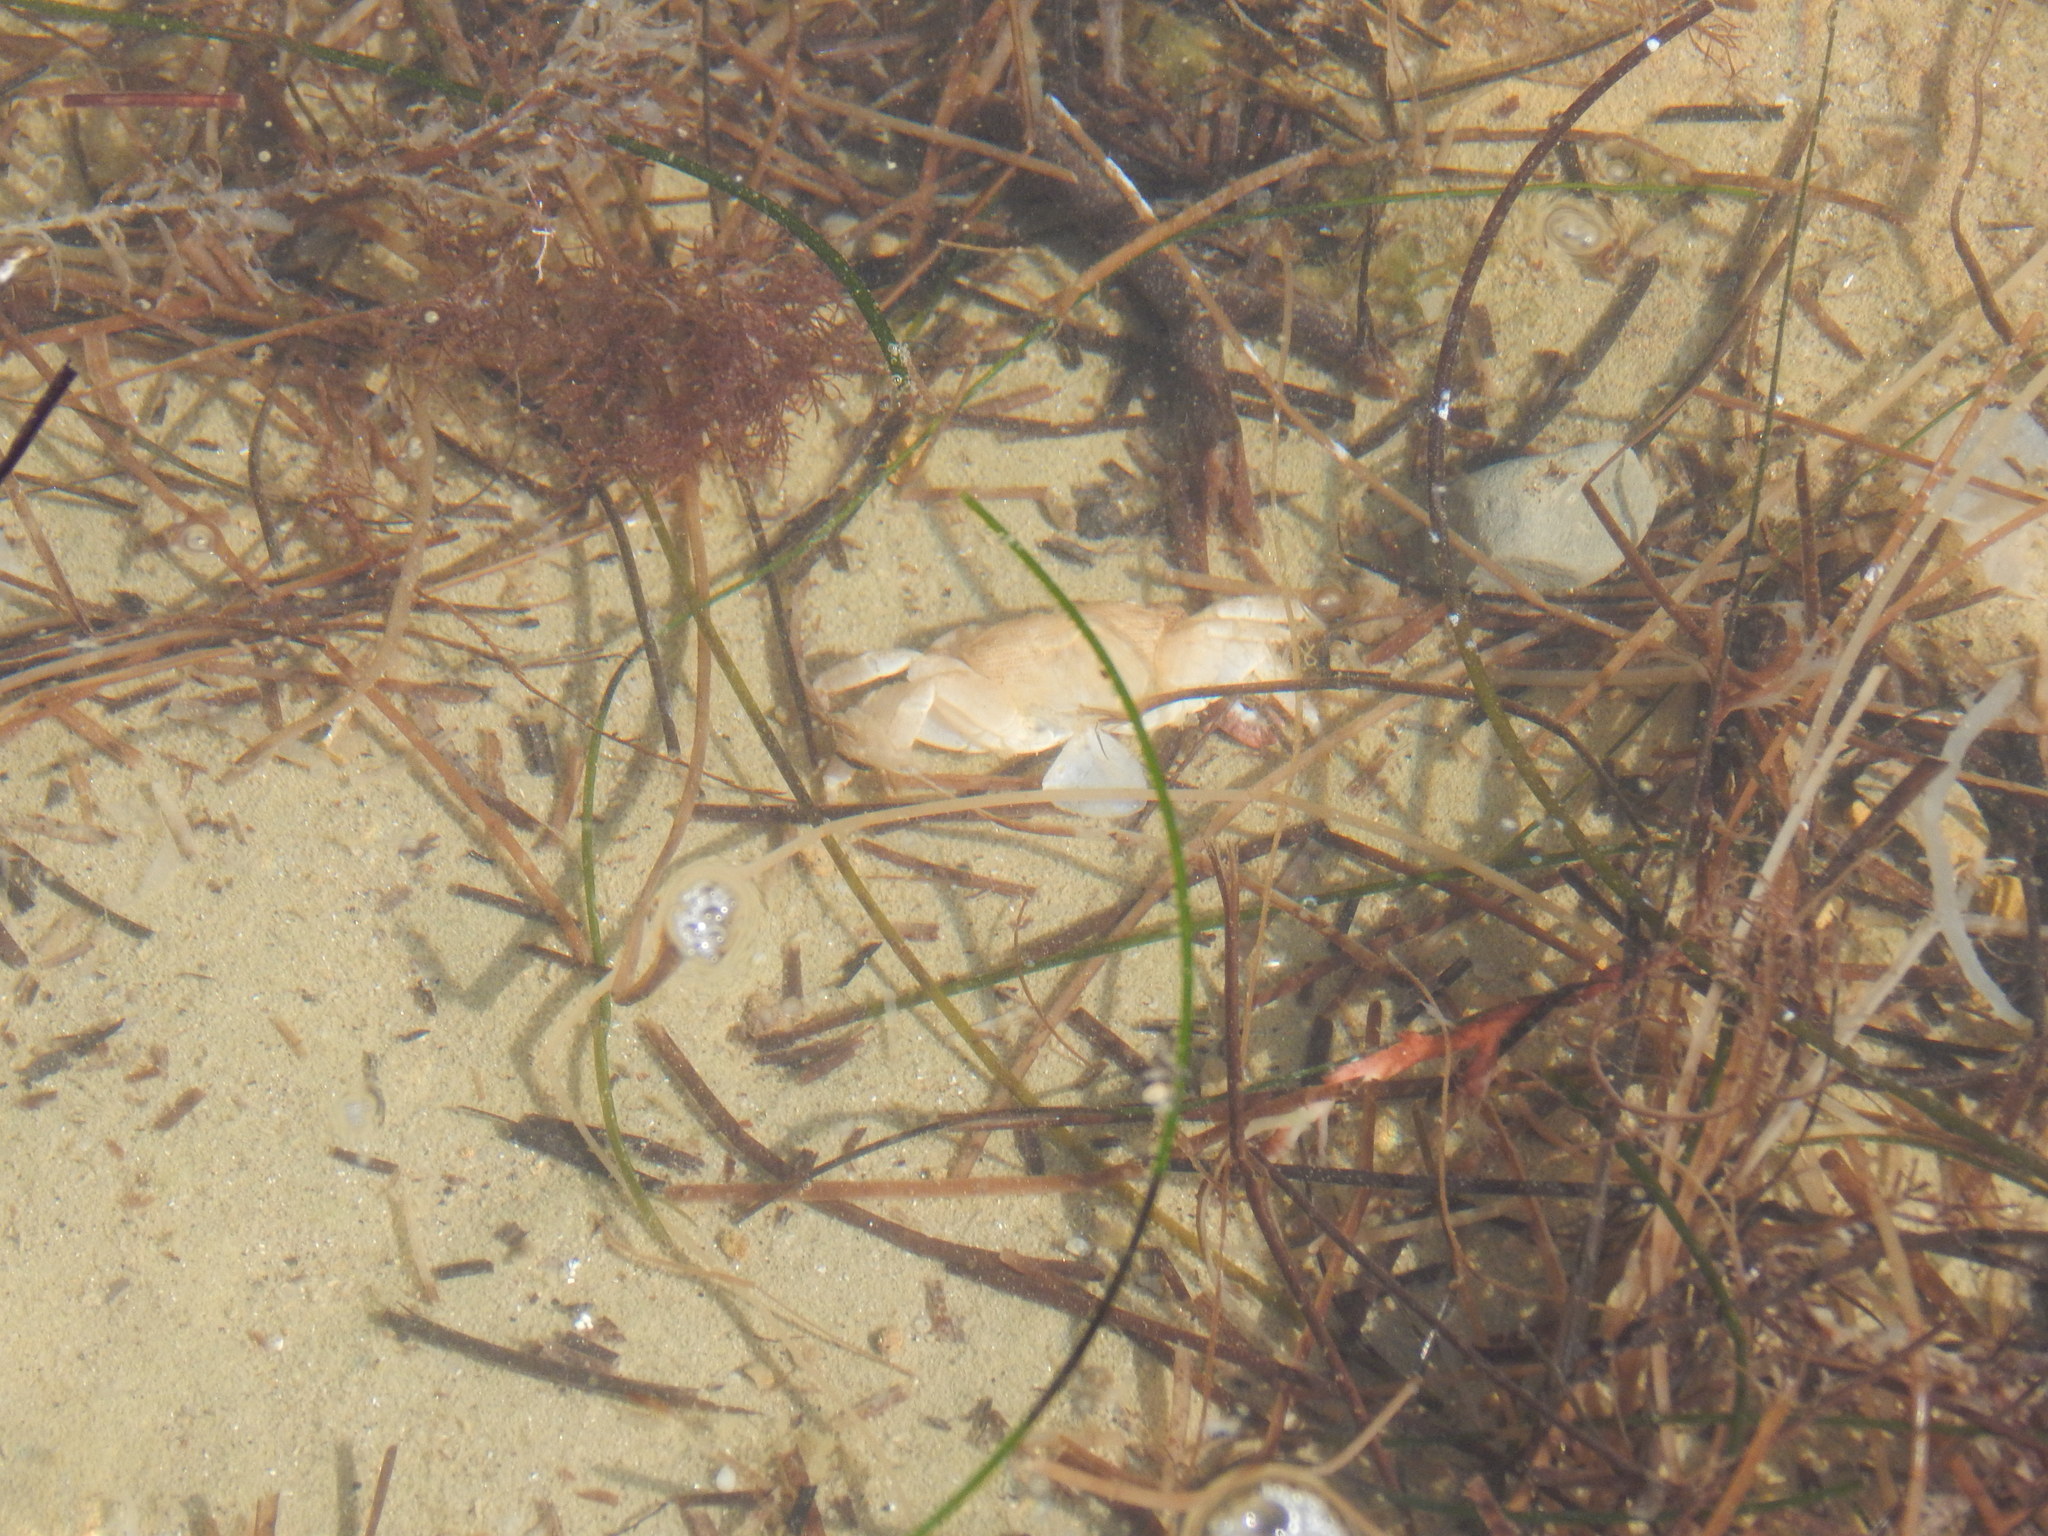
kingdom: Animalia
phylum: Arthropoda
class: Malacostraca
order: Decapoda
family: Grapsidae
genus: Pachygrapsus
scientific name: Pachygrapsus crassipes
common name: Striped shore crab
